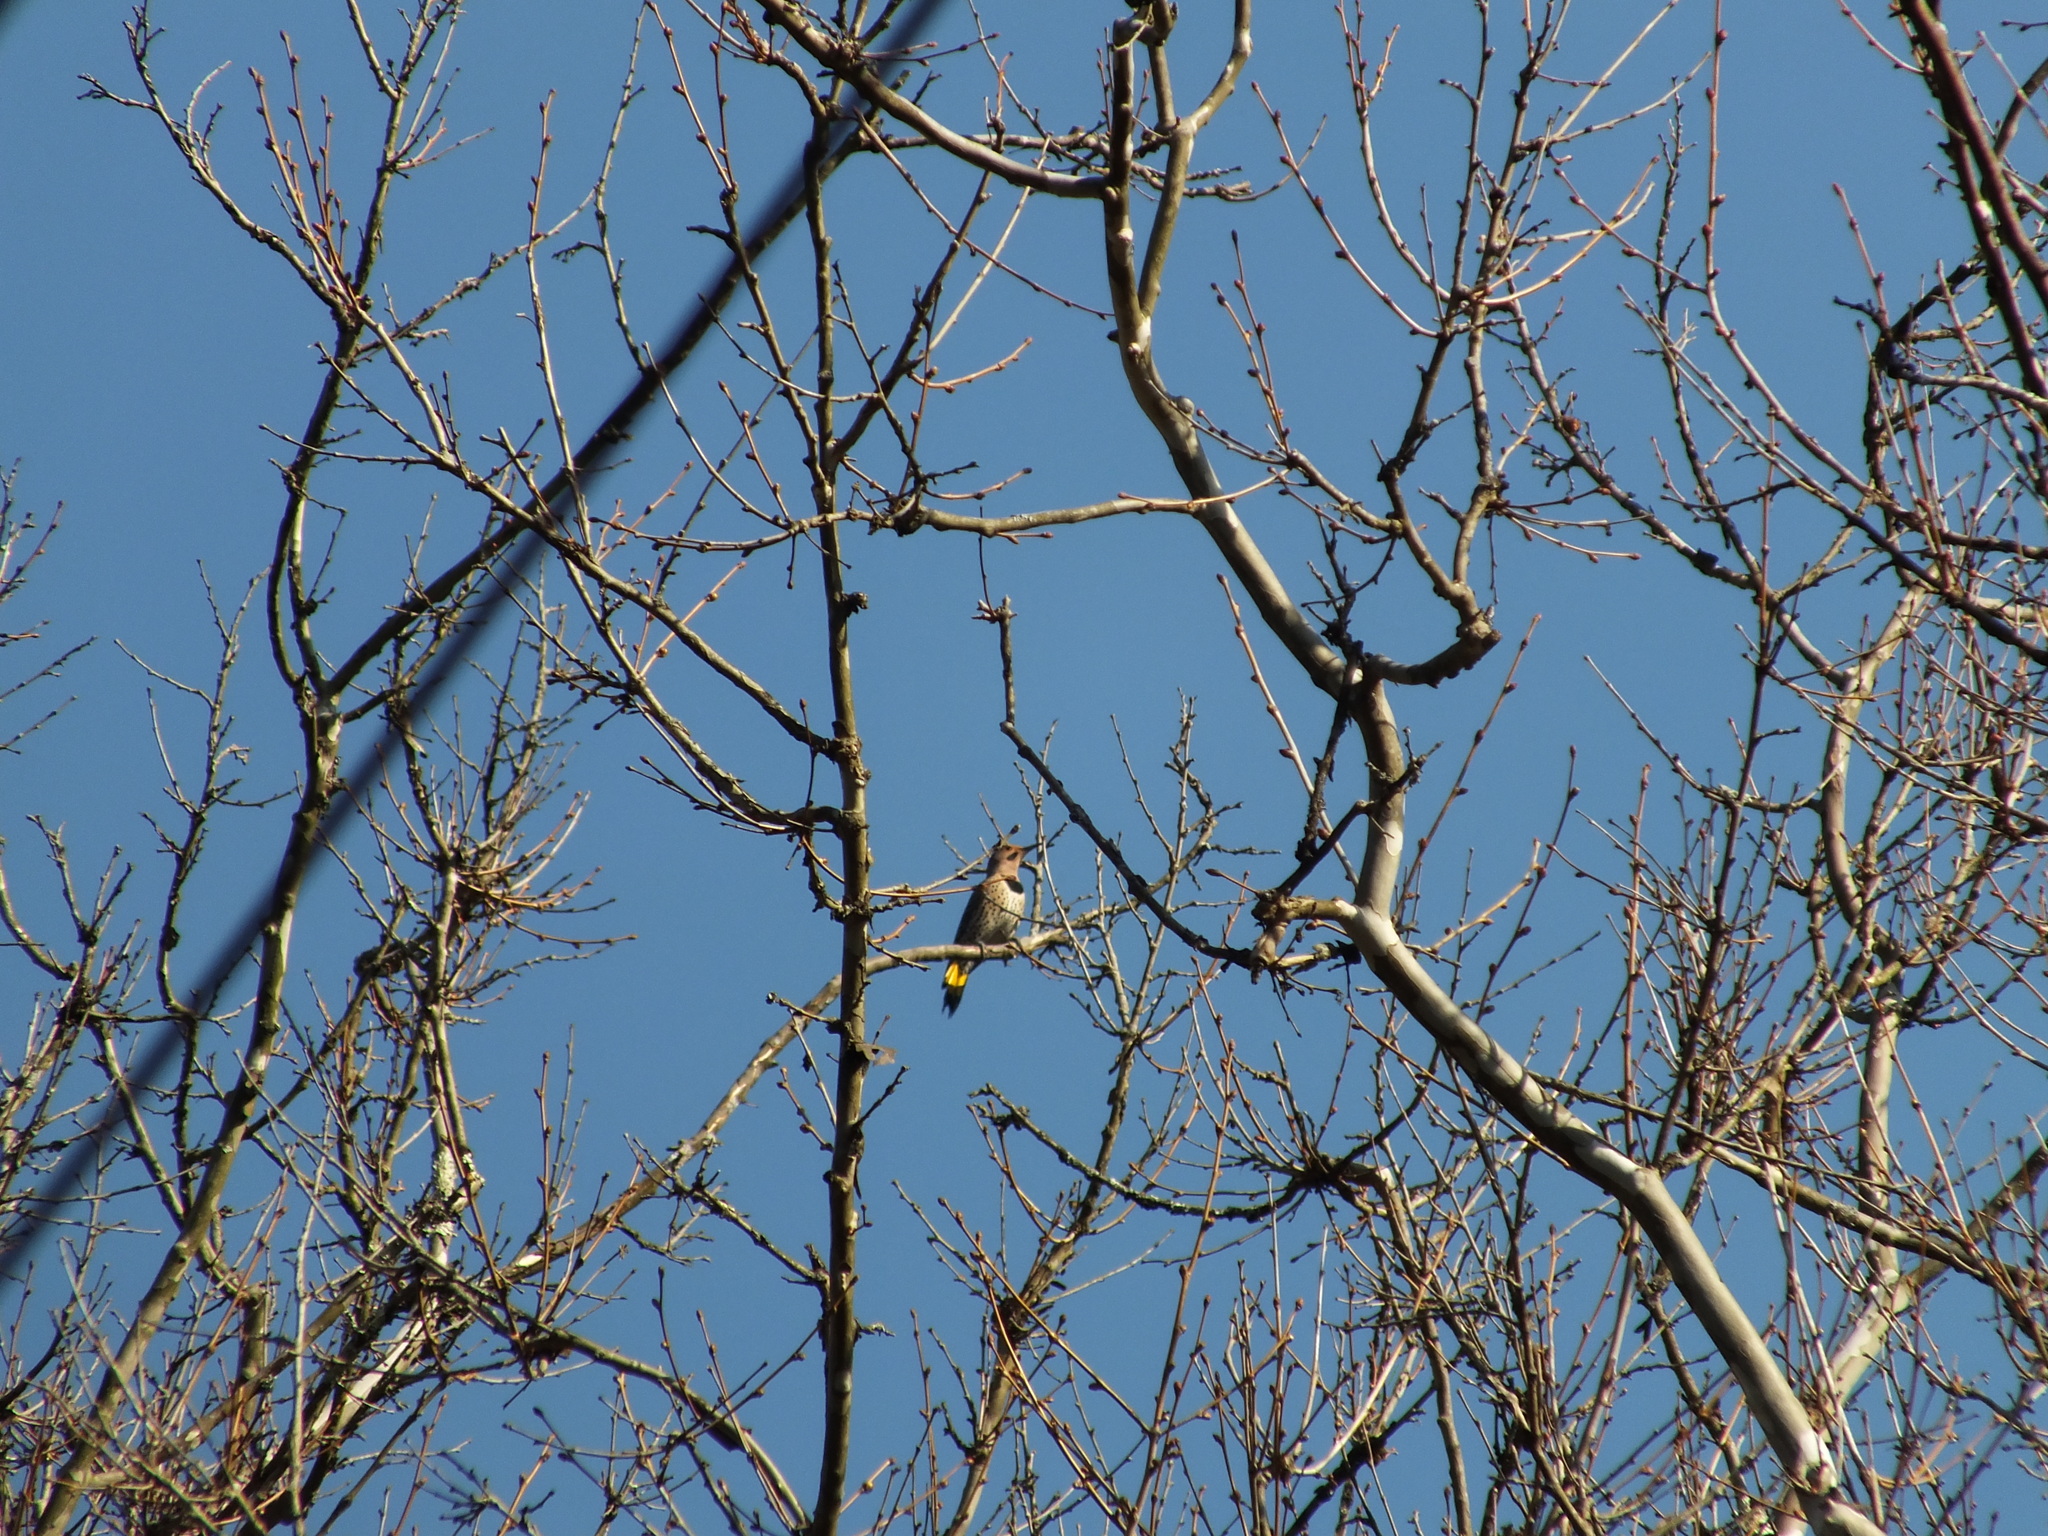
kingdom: Animalia
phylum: Chordata
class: Aves
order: Piciformes
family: Picidae
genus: Colaptes
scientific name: Colaptes auratus
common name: Northern flicker
